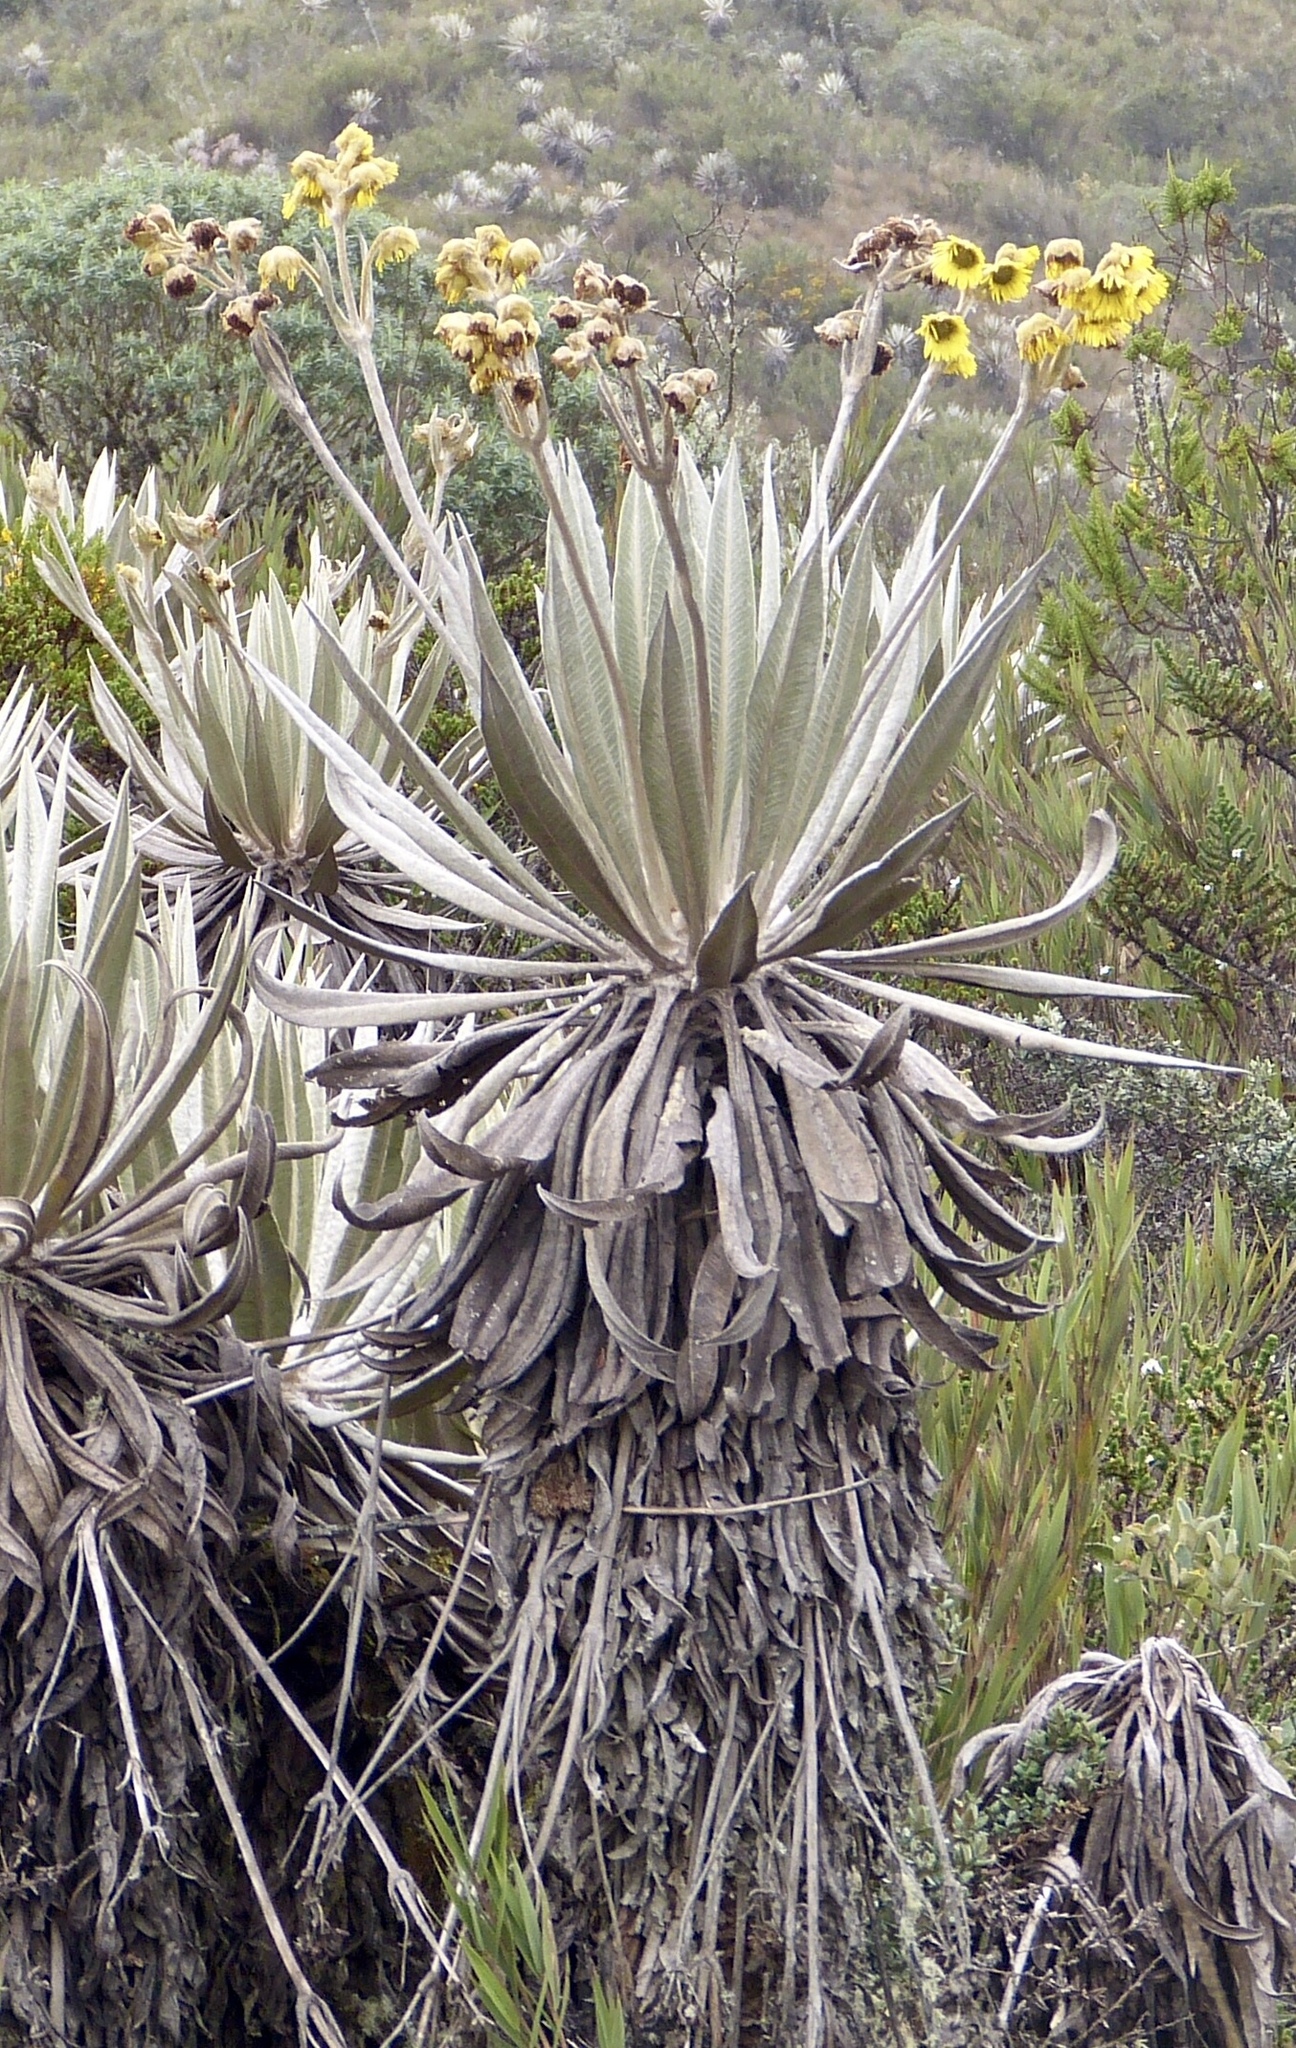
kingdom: Plantae
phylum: Tracheophyta
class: Magnoliopsida
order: Asterales
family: Asteraceae
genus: Espeletia
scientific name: Espeletia grandiflora
